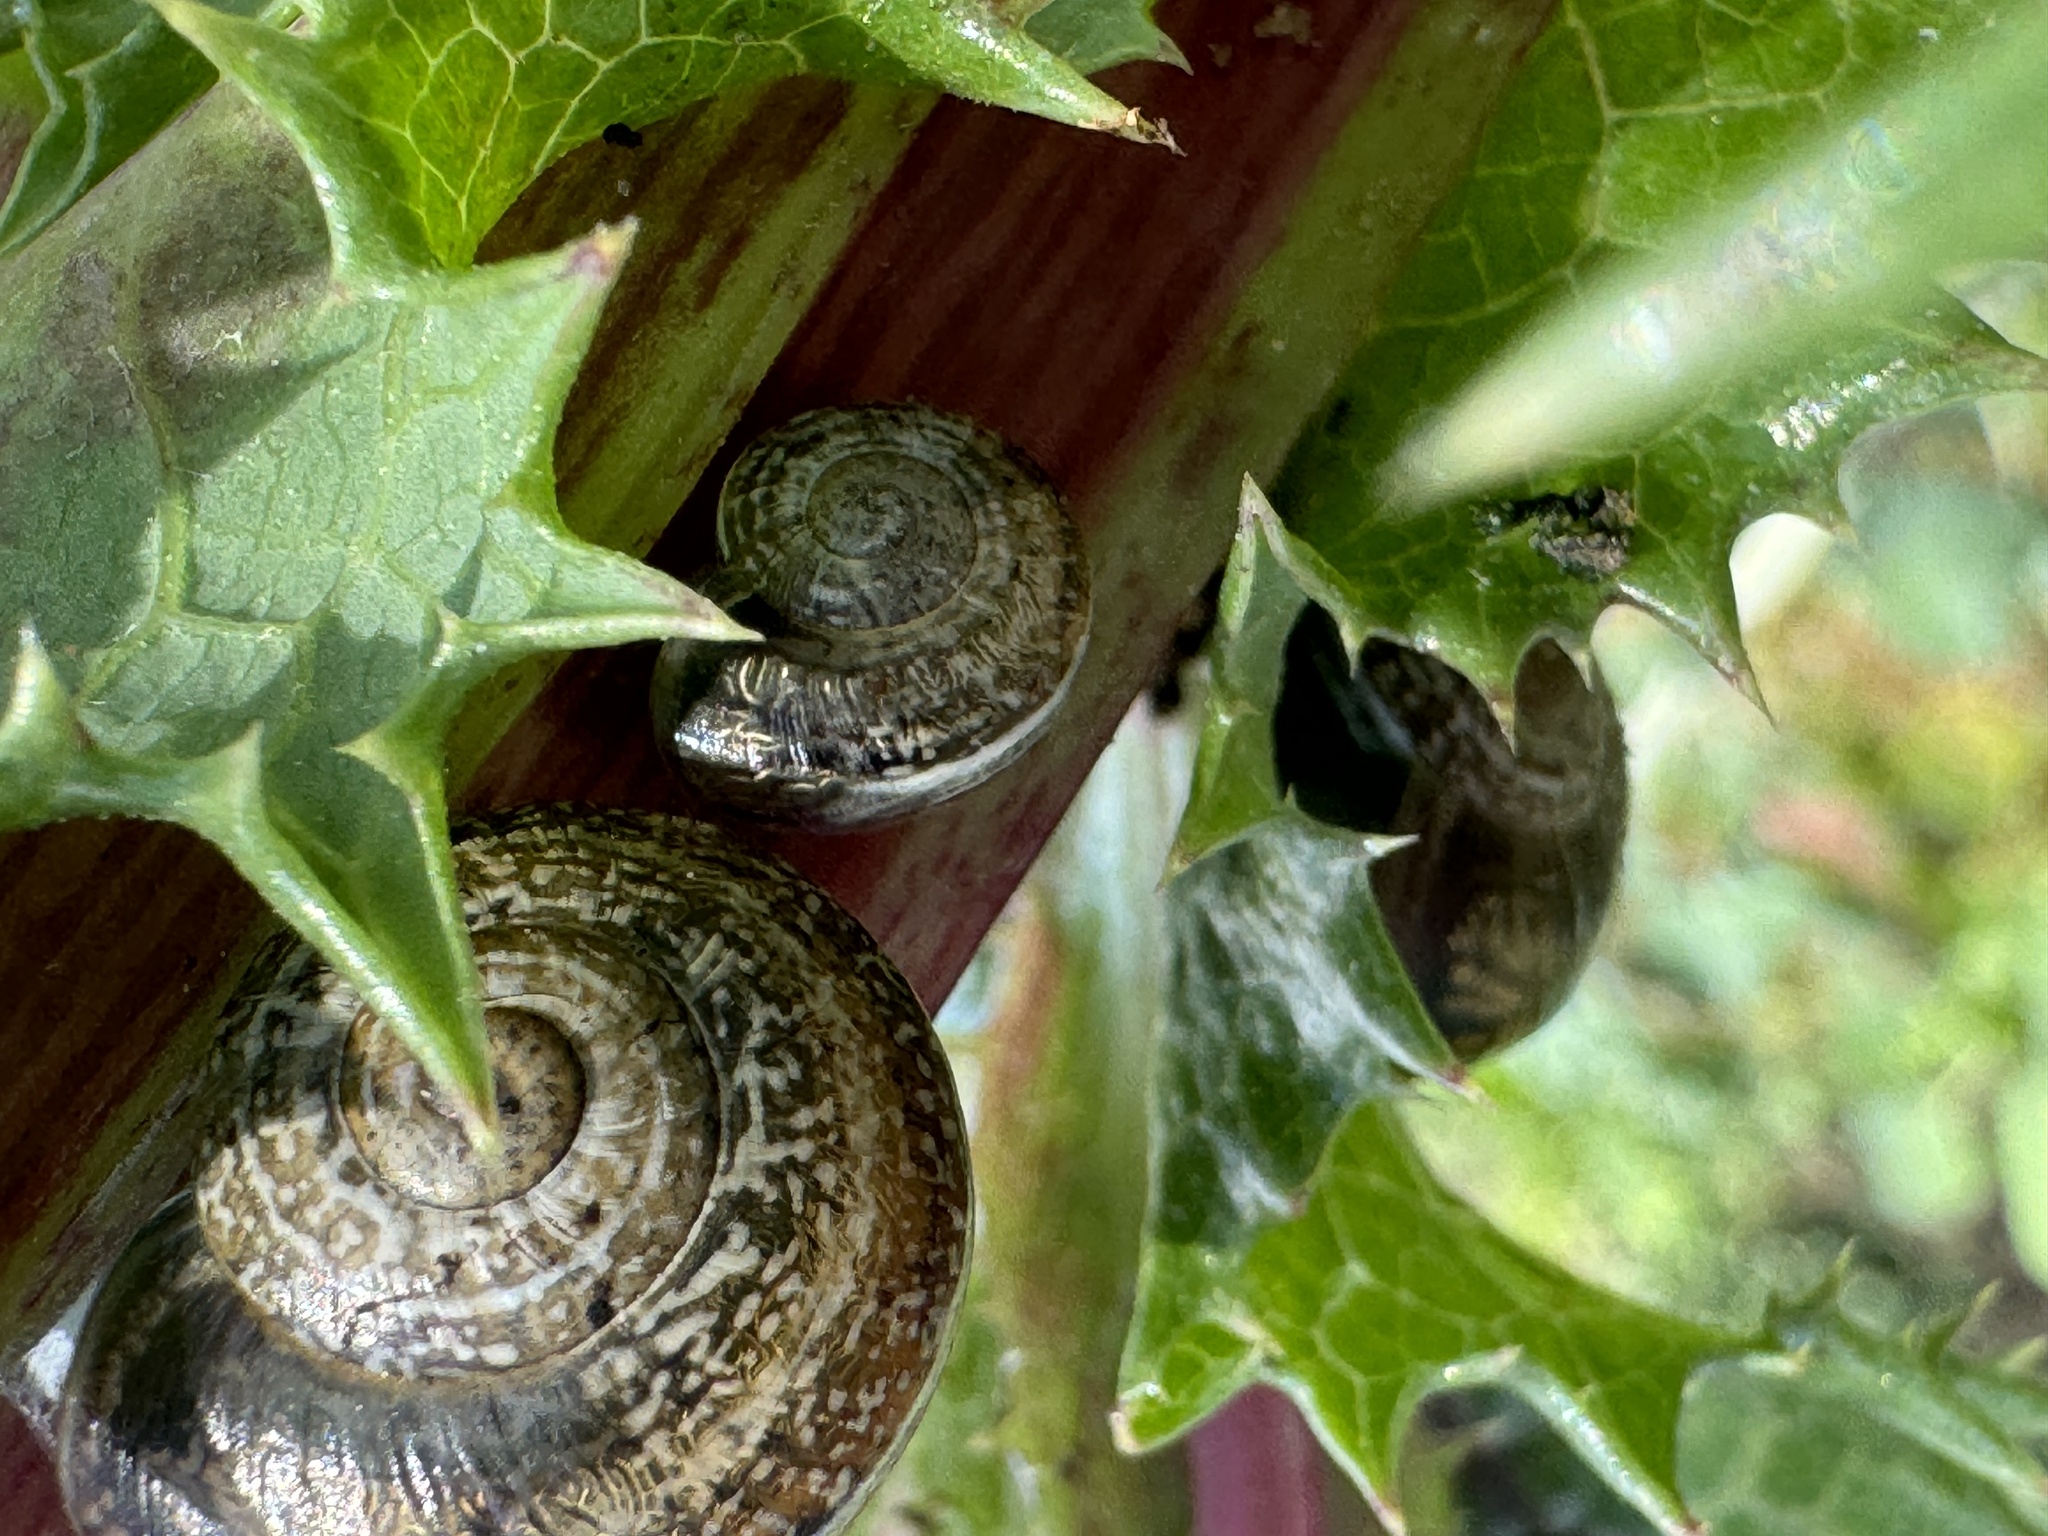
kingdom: Animalia
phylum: Mollusca
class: Gastropoda
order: Stylommatophora
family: Helicidae
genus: Otala
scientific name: Otala lactea
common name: Milk snail
